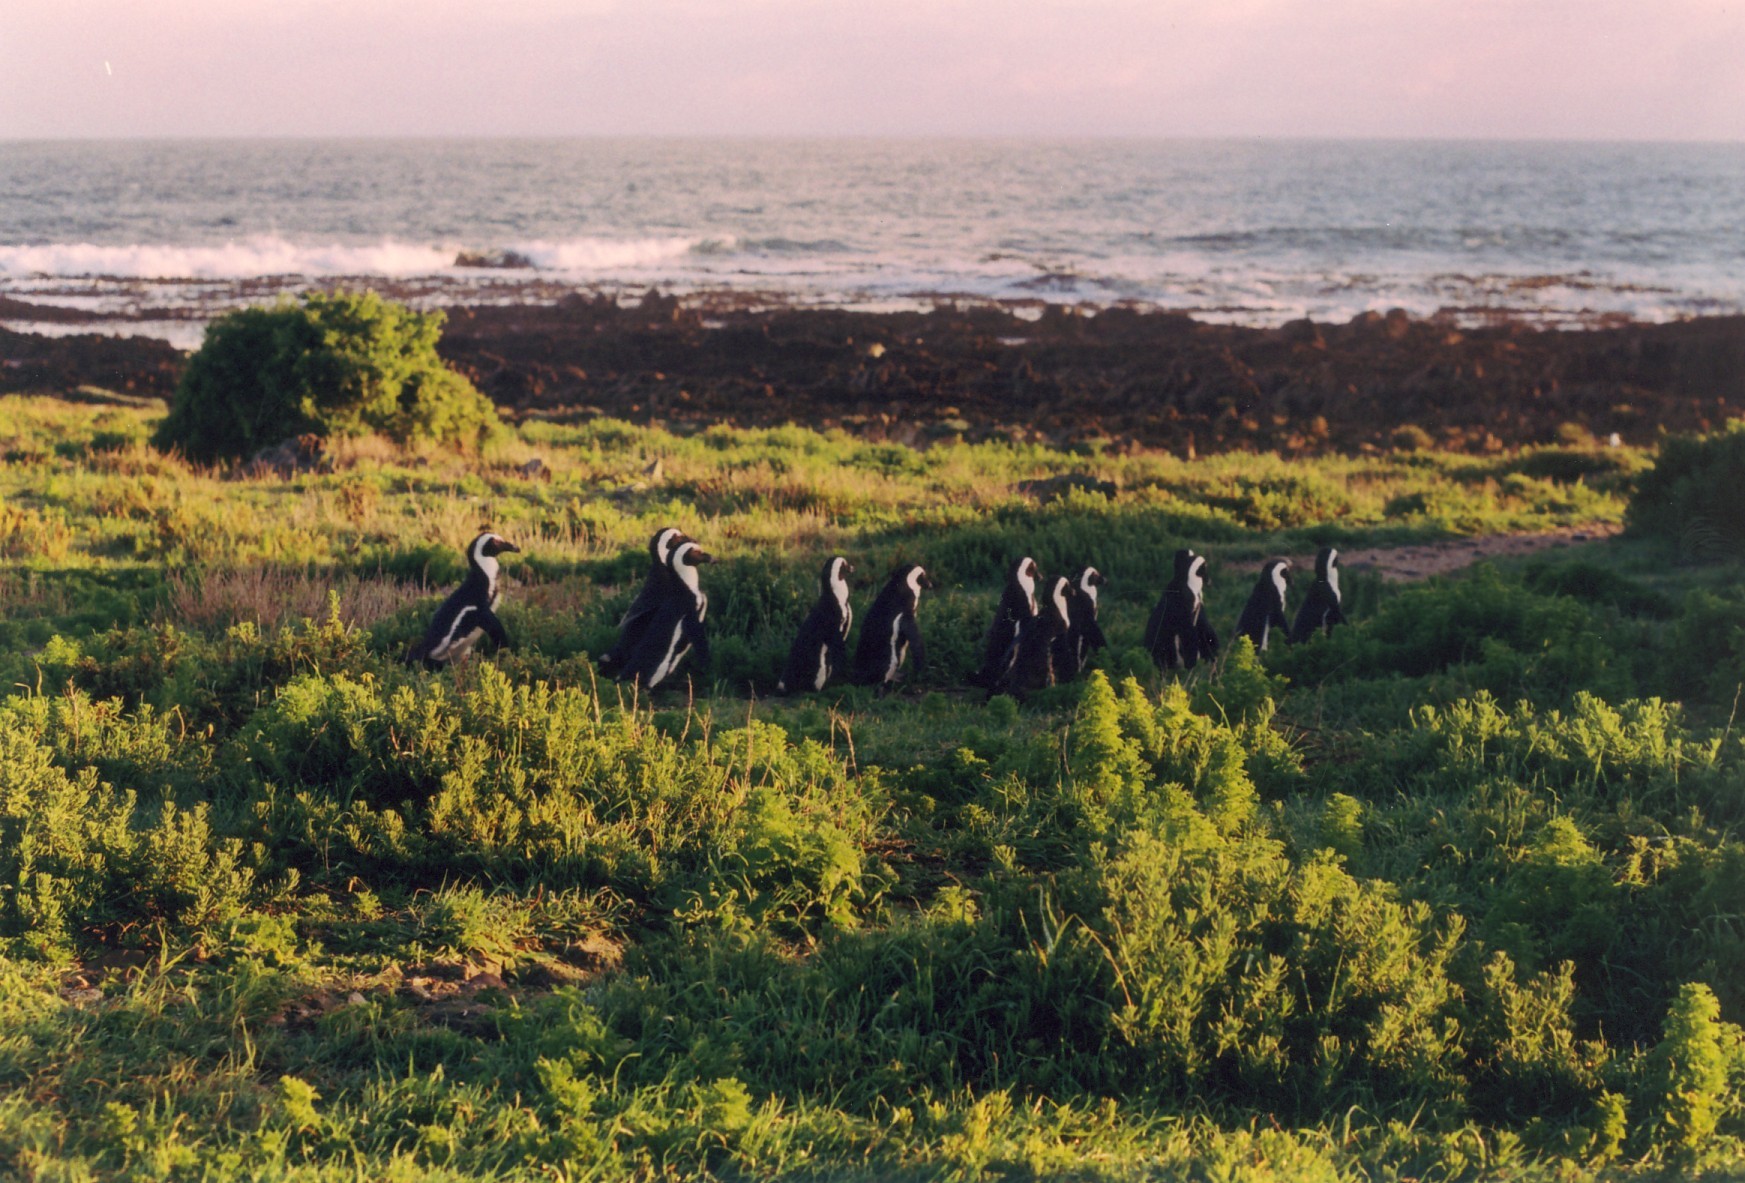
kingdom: Animalia
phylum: Chordata
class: Aves
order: Sphenisciformes
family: Spheniscidae
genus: Spheniscus
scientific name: Spheniscus demersus
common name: African penguin
